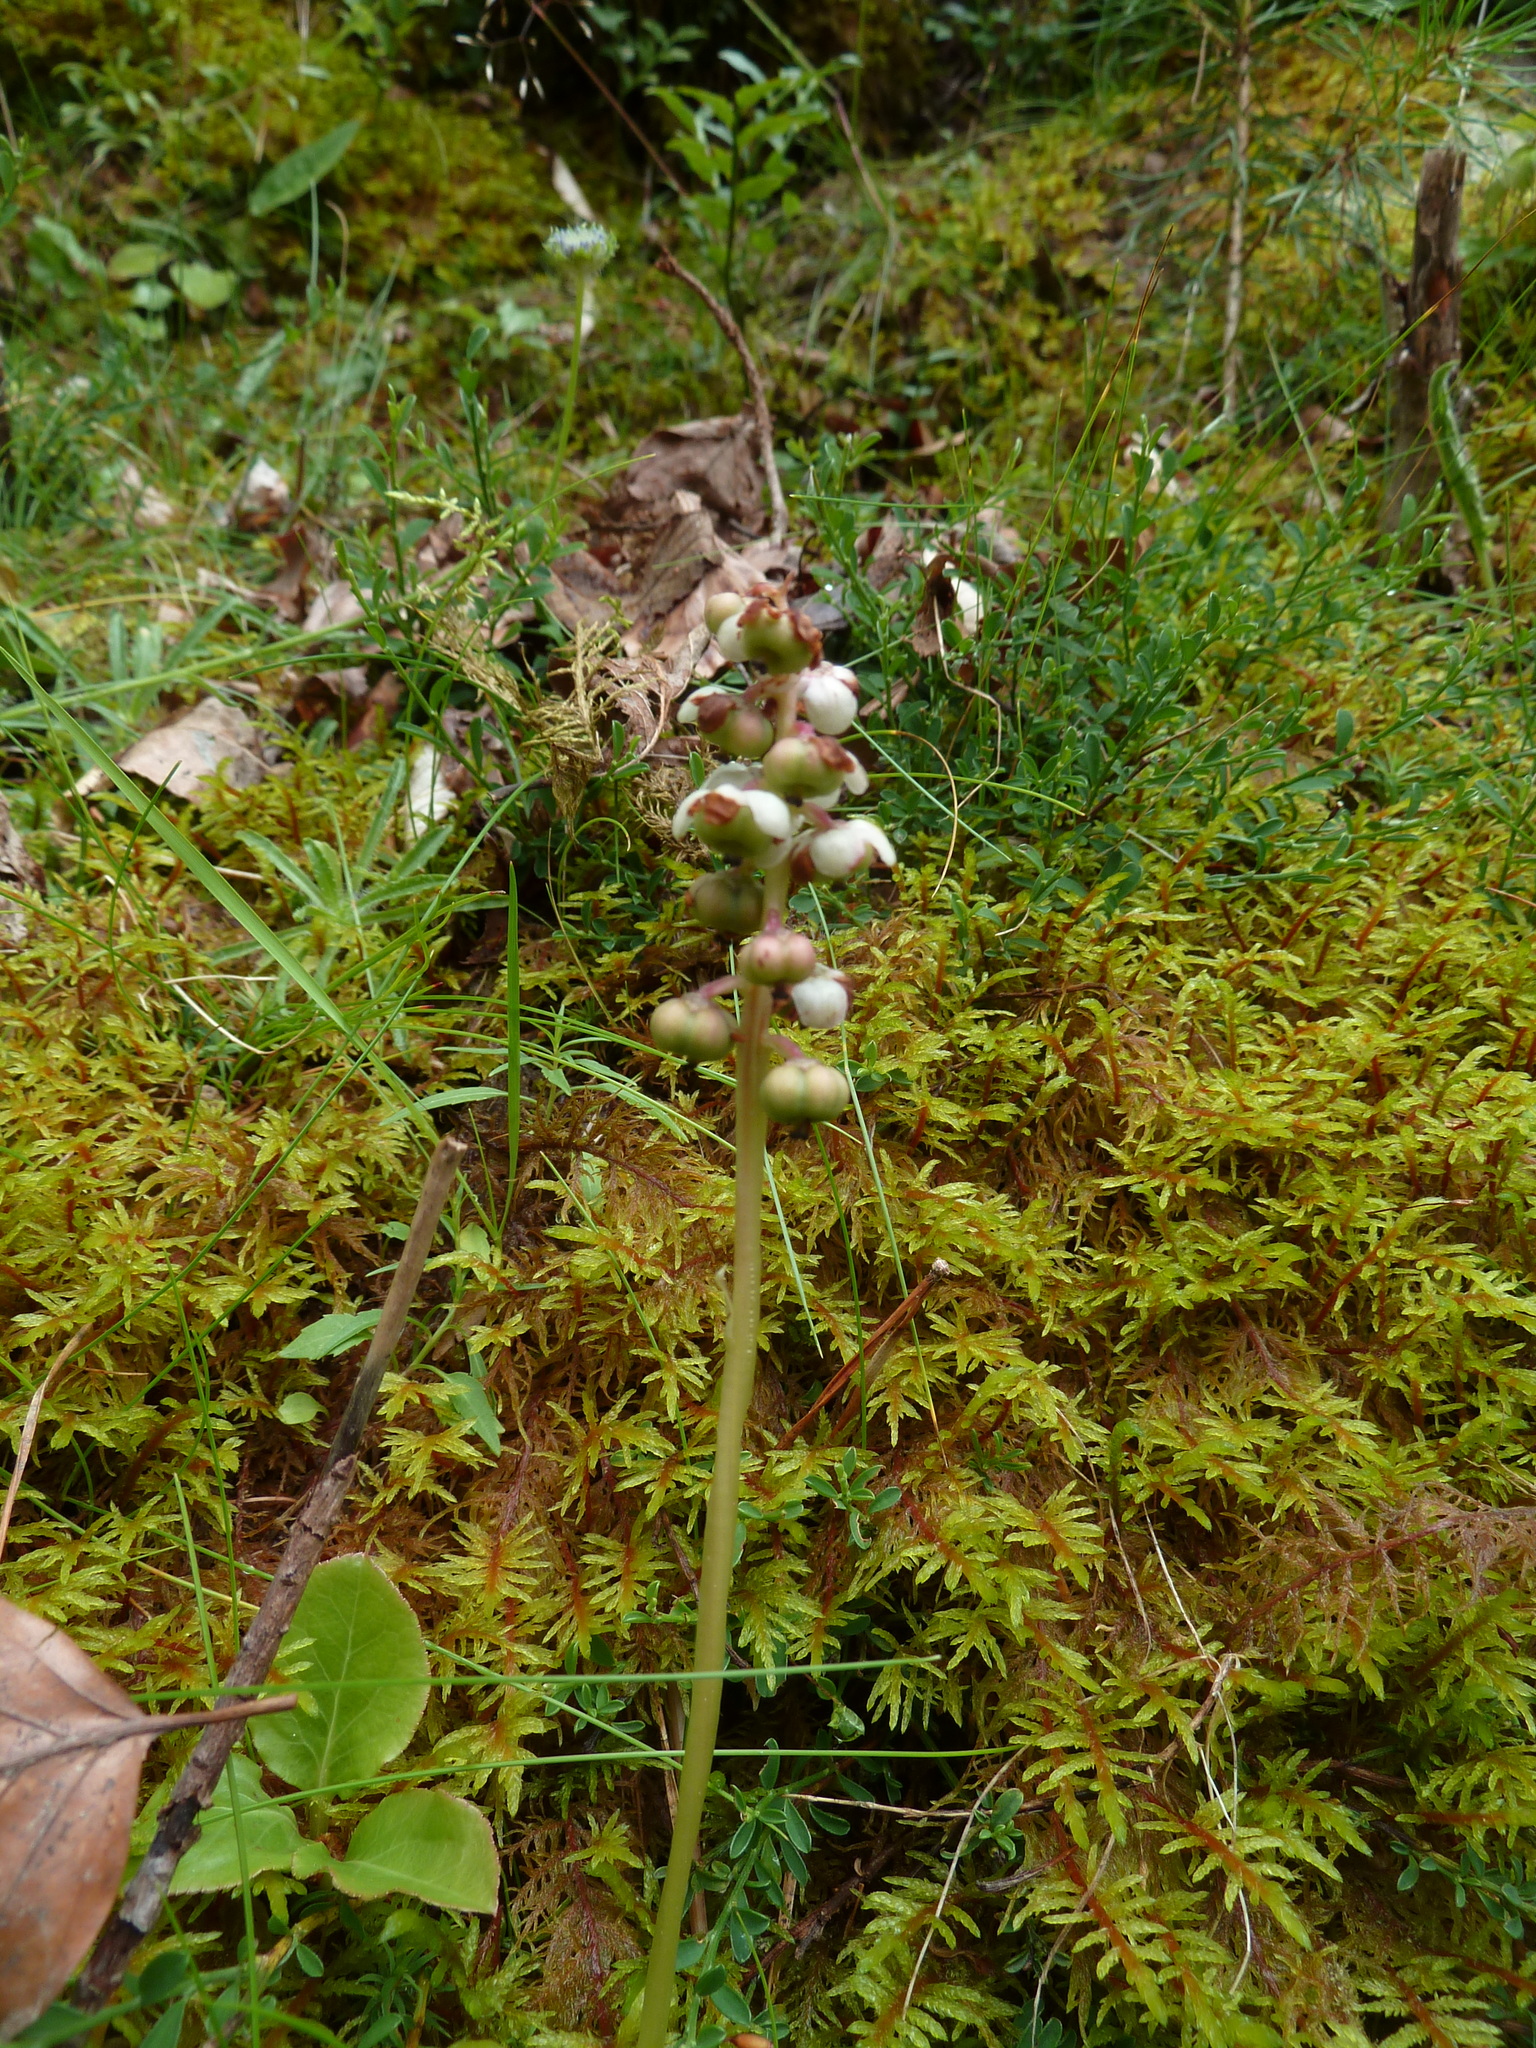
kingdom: Plantae
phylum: Tracheophyta
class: Magnoliopsida
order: Ericales
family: Ericaceae
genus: Pyrola
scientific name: Pyrola minor
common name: Common wintergreen
